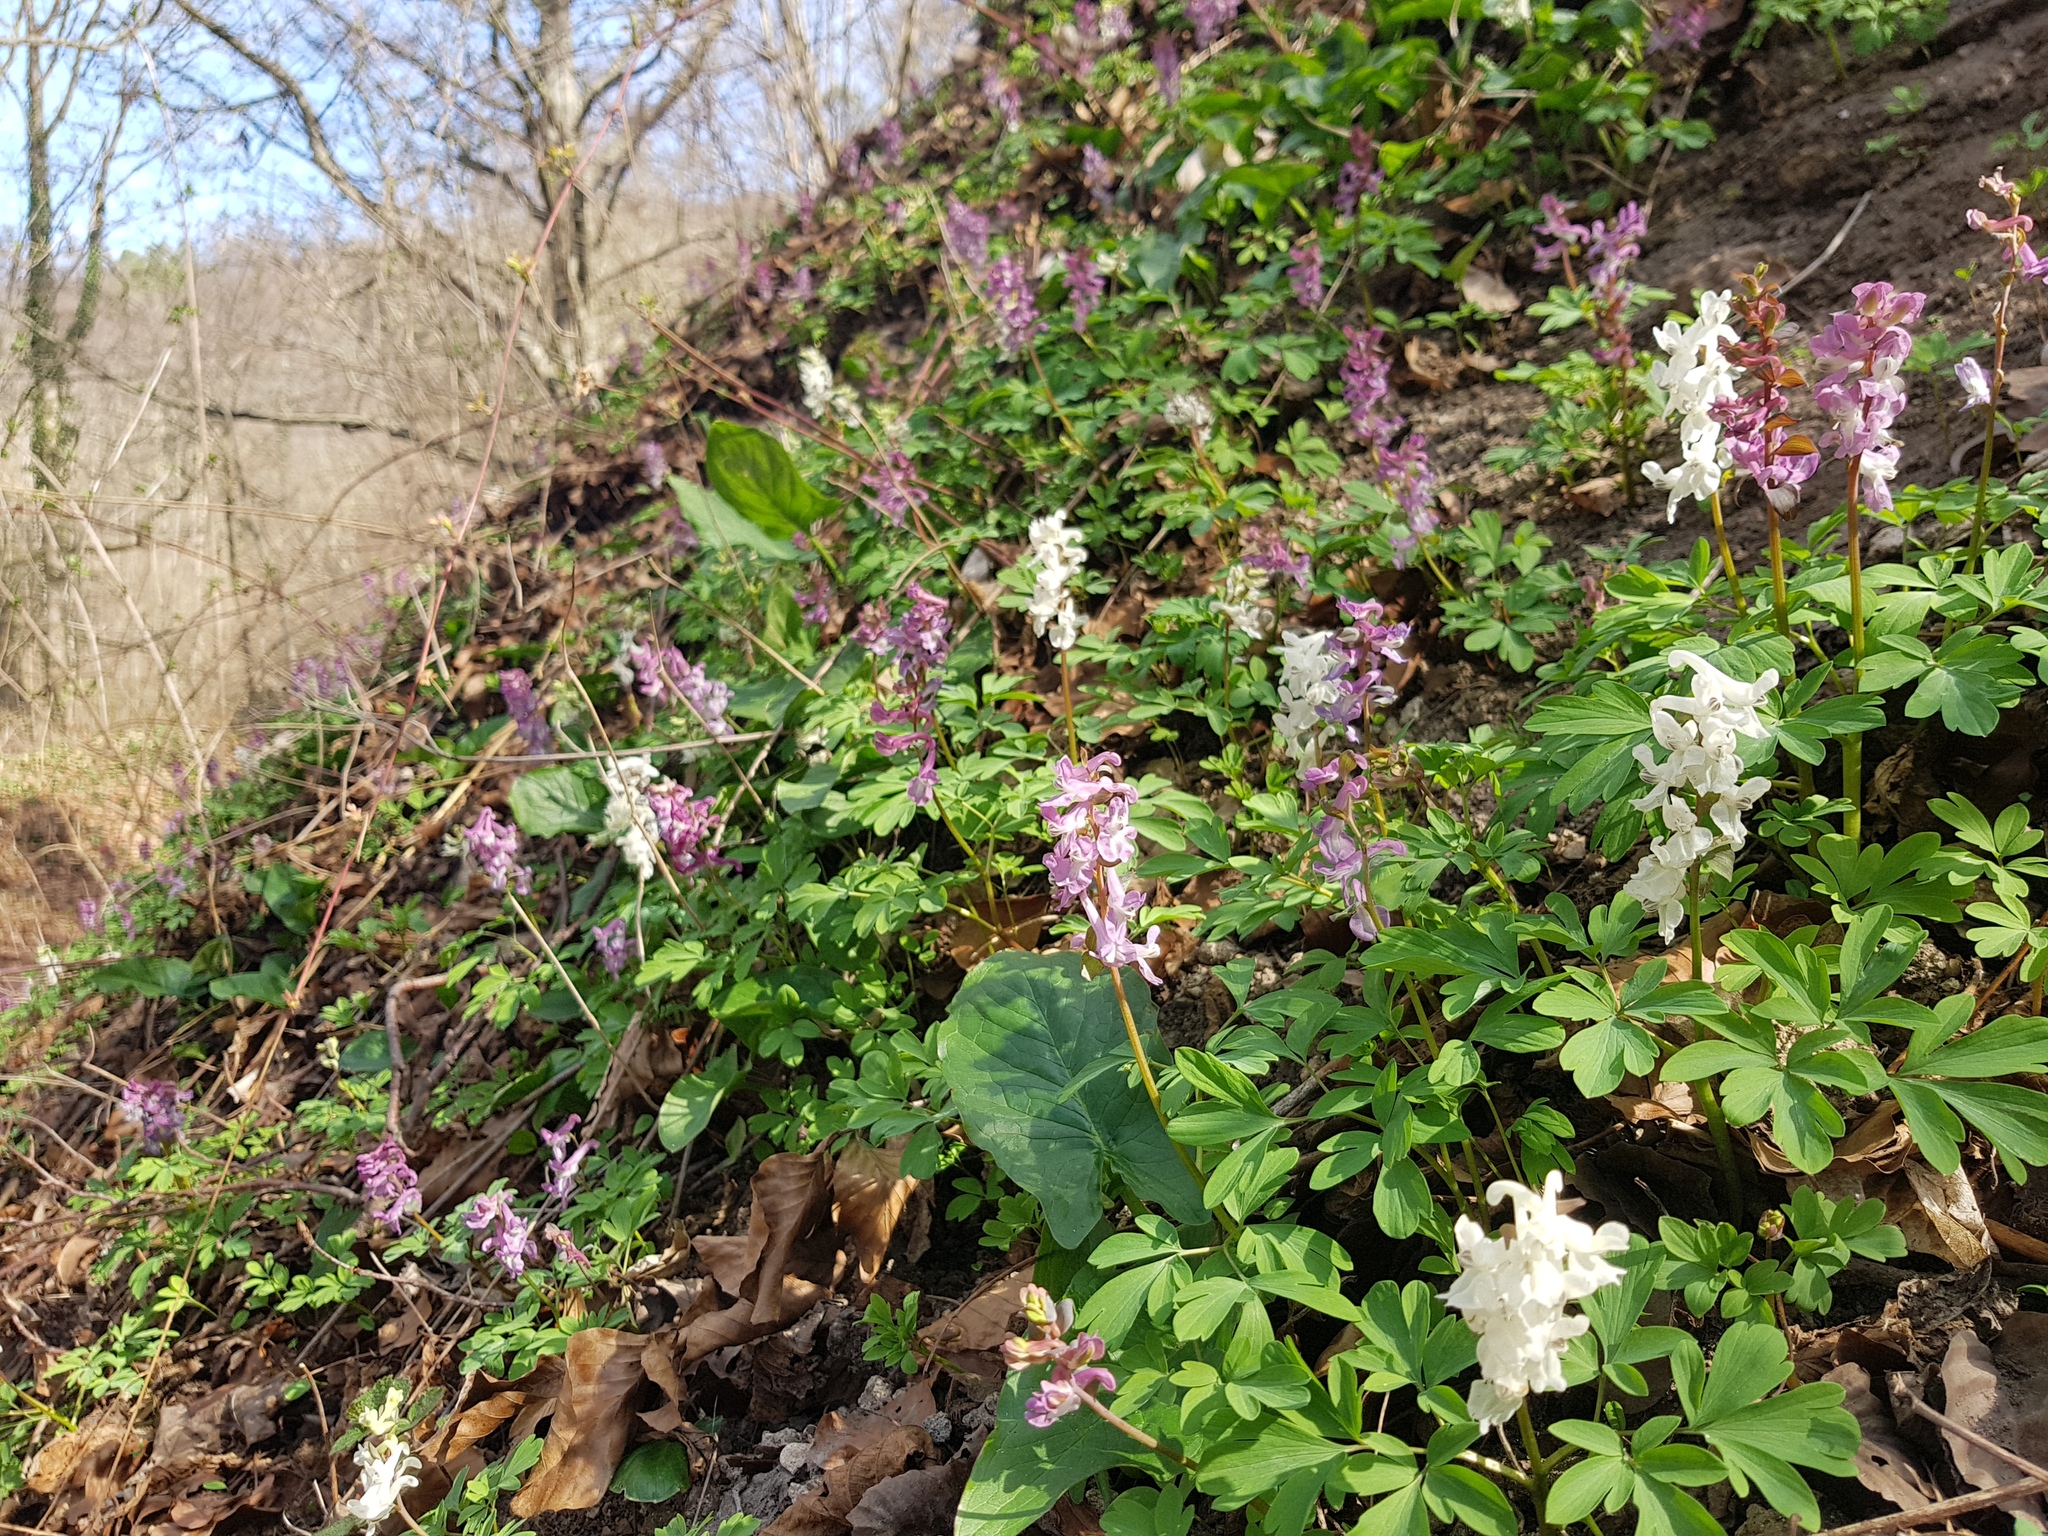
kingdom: Plantae
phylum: Tracheophyta
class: Magnoliopsida
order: Ranunculales
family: Papaveraceae
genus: Corydalis
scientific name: Corydalis cava
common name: Hollowroot
